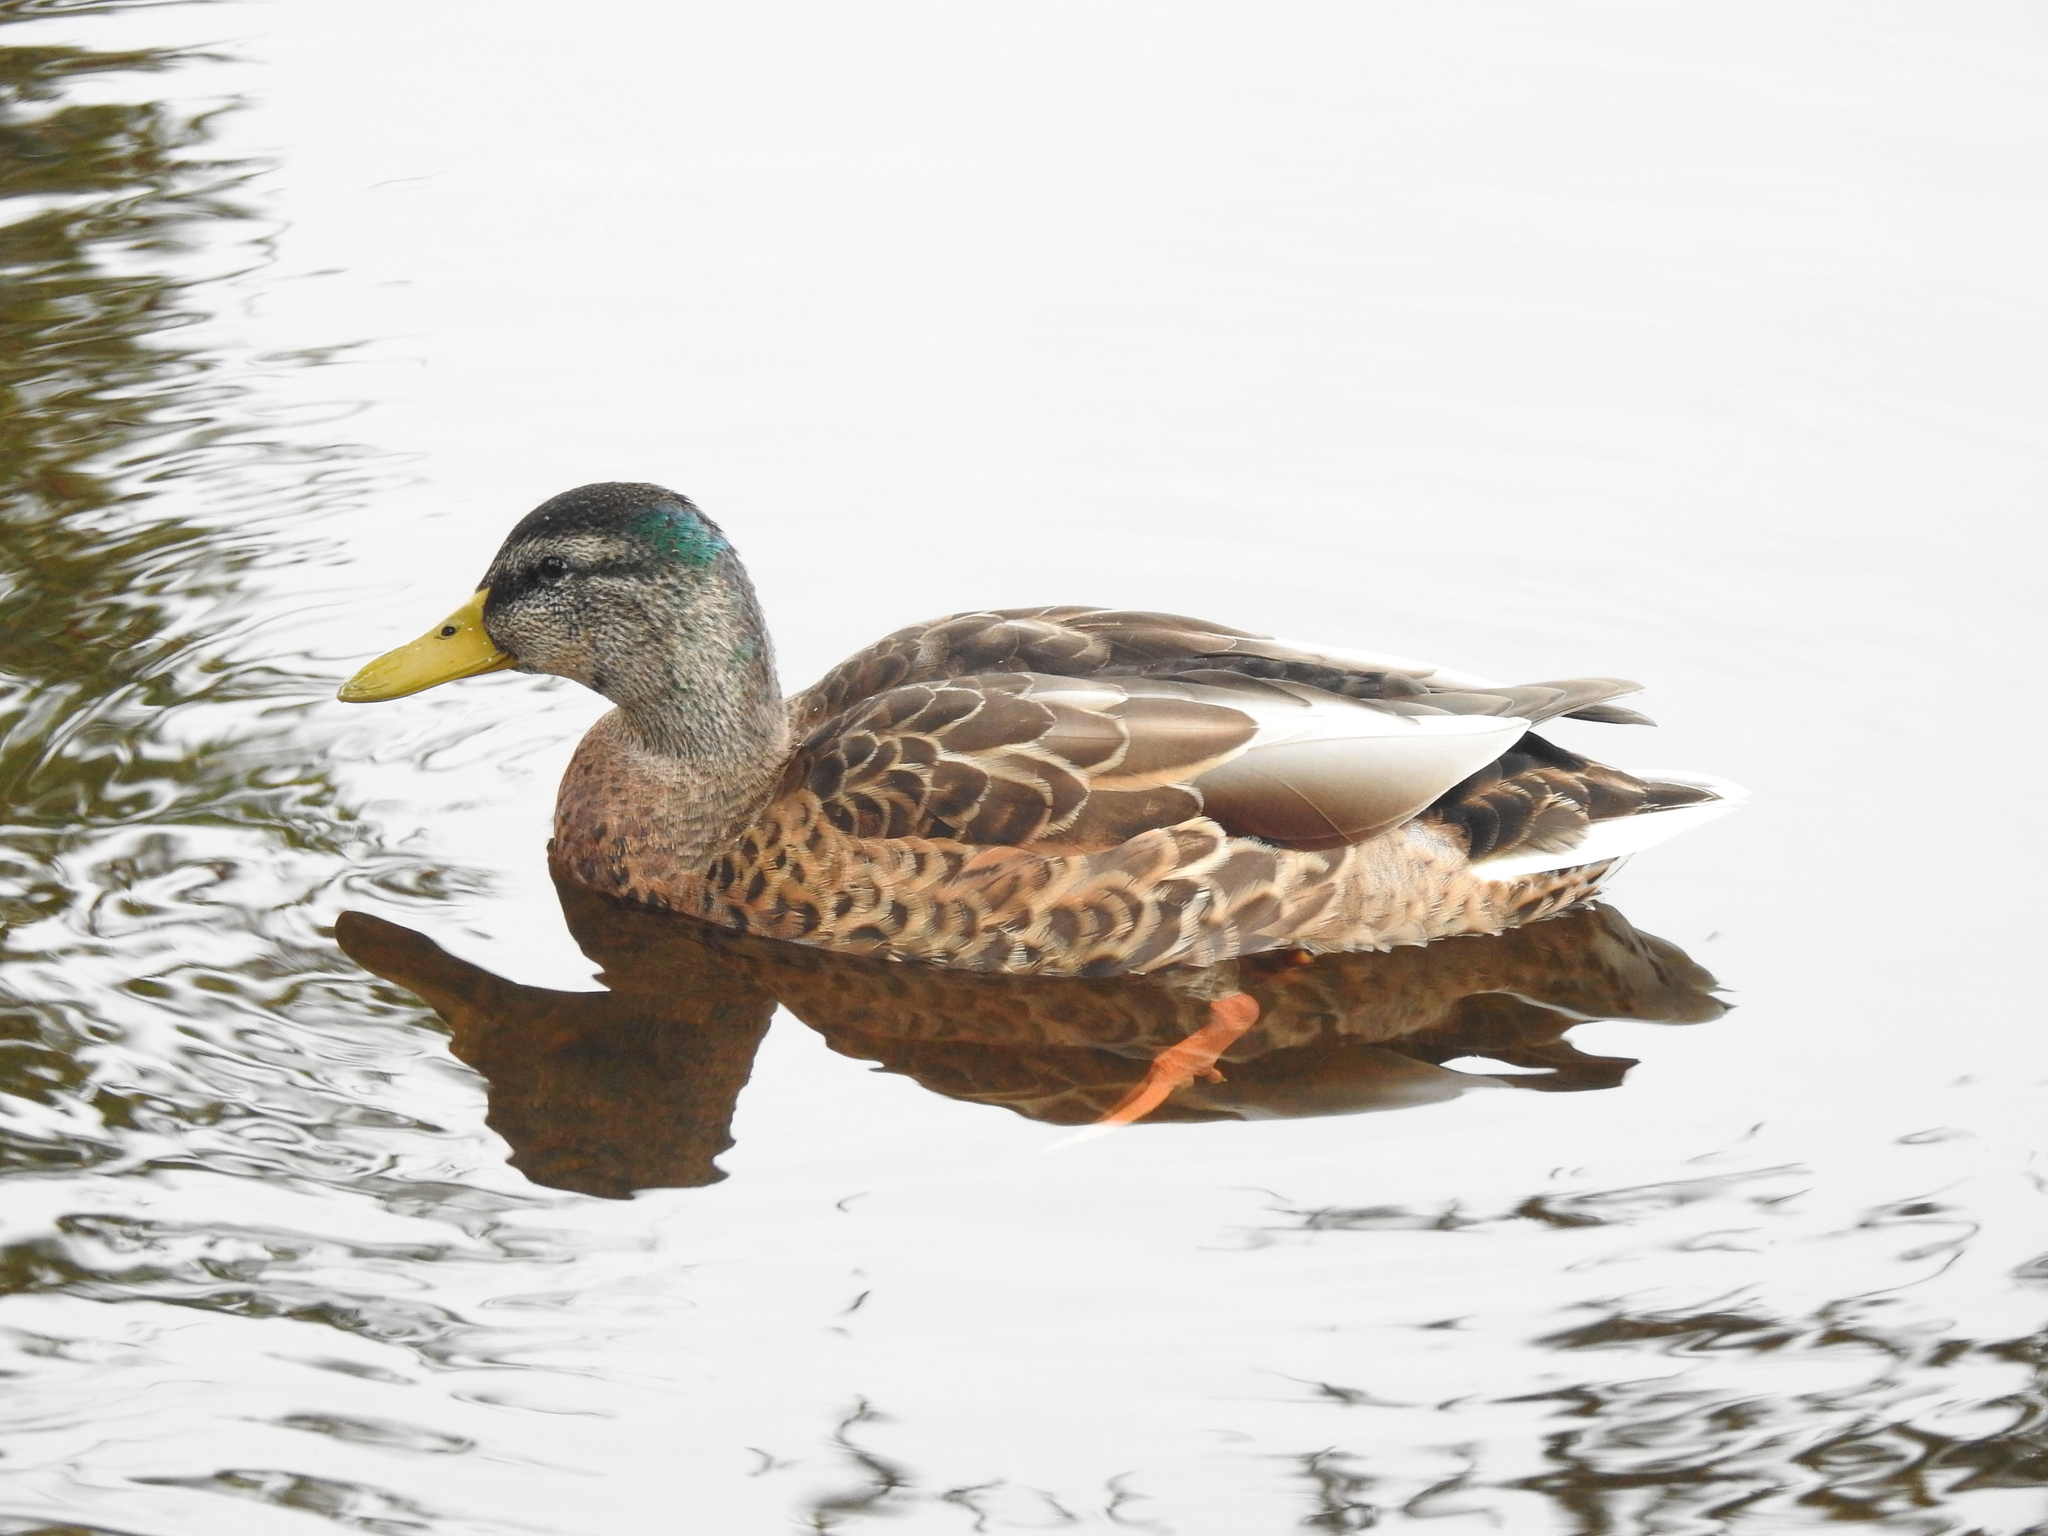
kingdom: Animalia
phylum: Chordata
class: Aves
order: Anseriformes
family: Anatidae
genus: Anas
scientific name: Anas platyrhynchos
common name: Mallard
